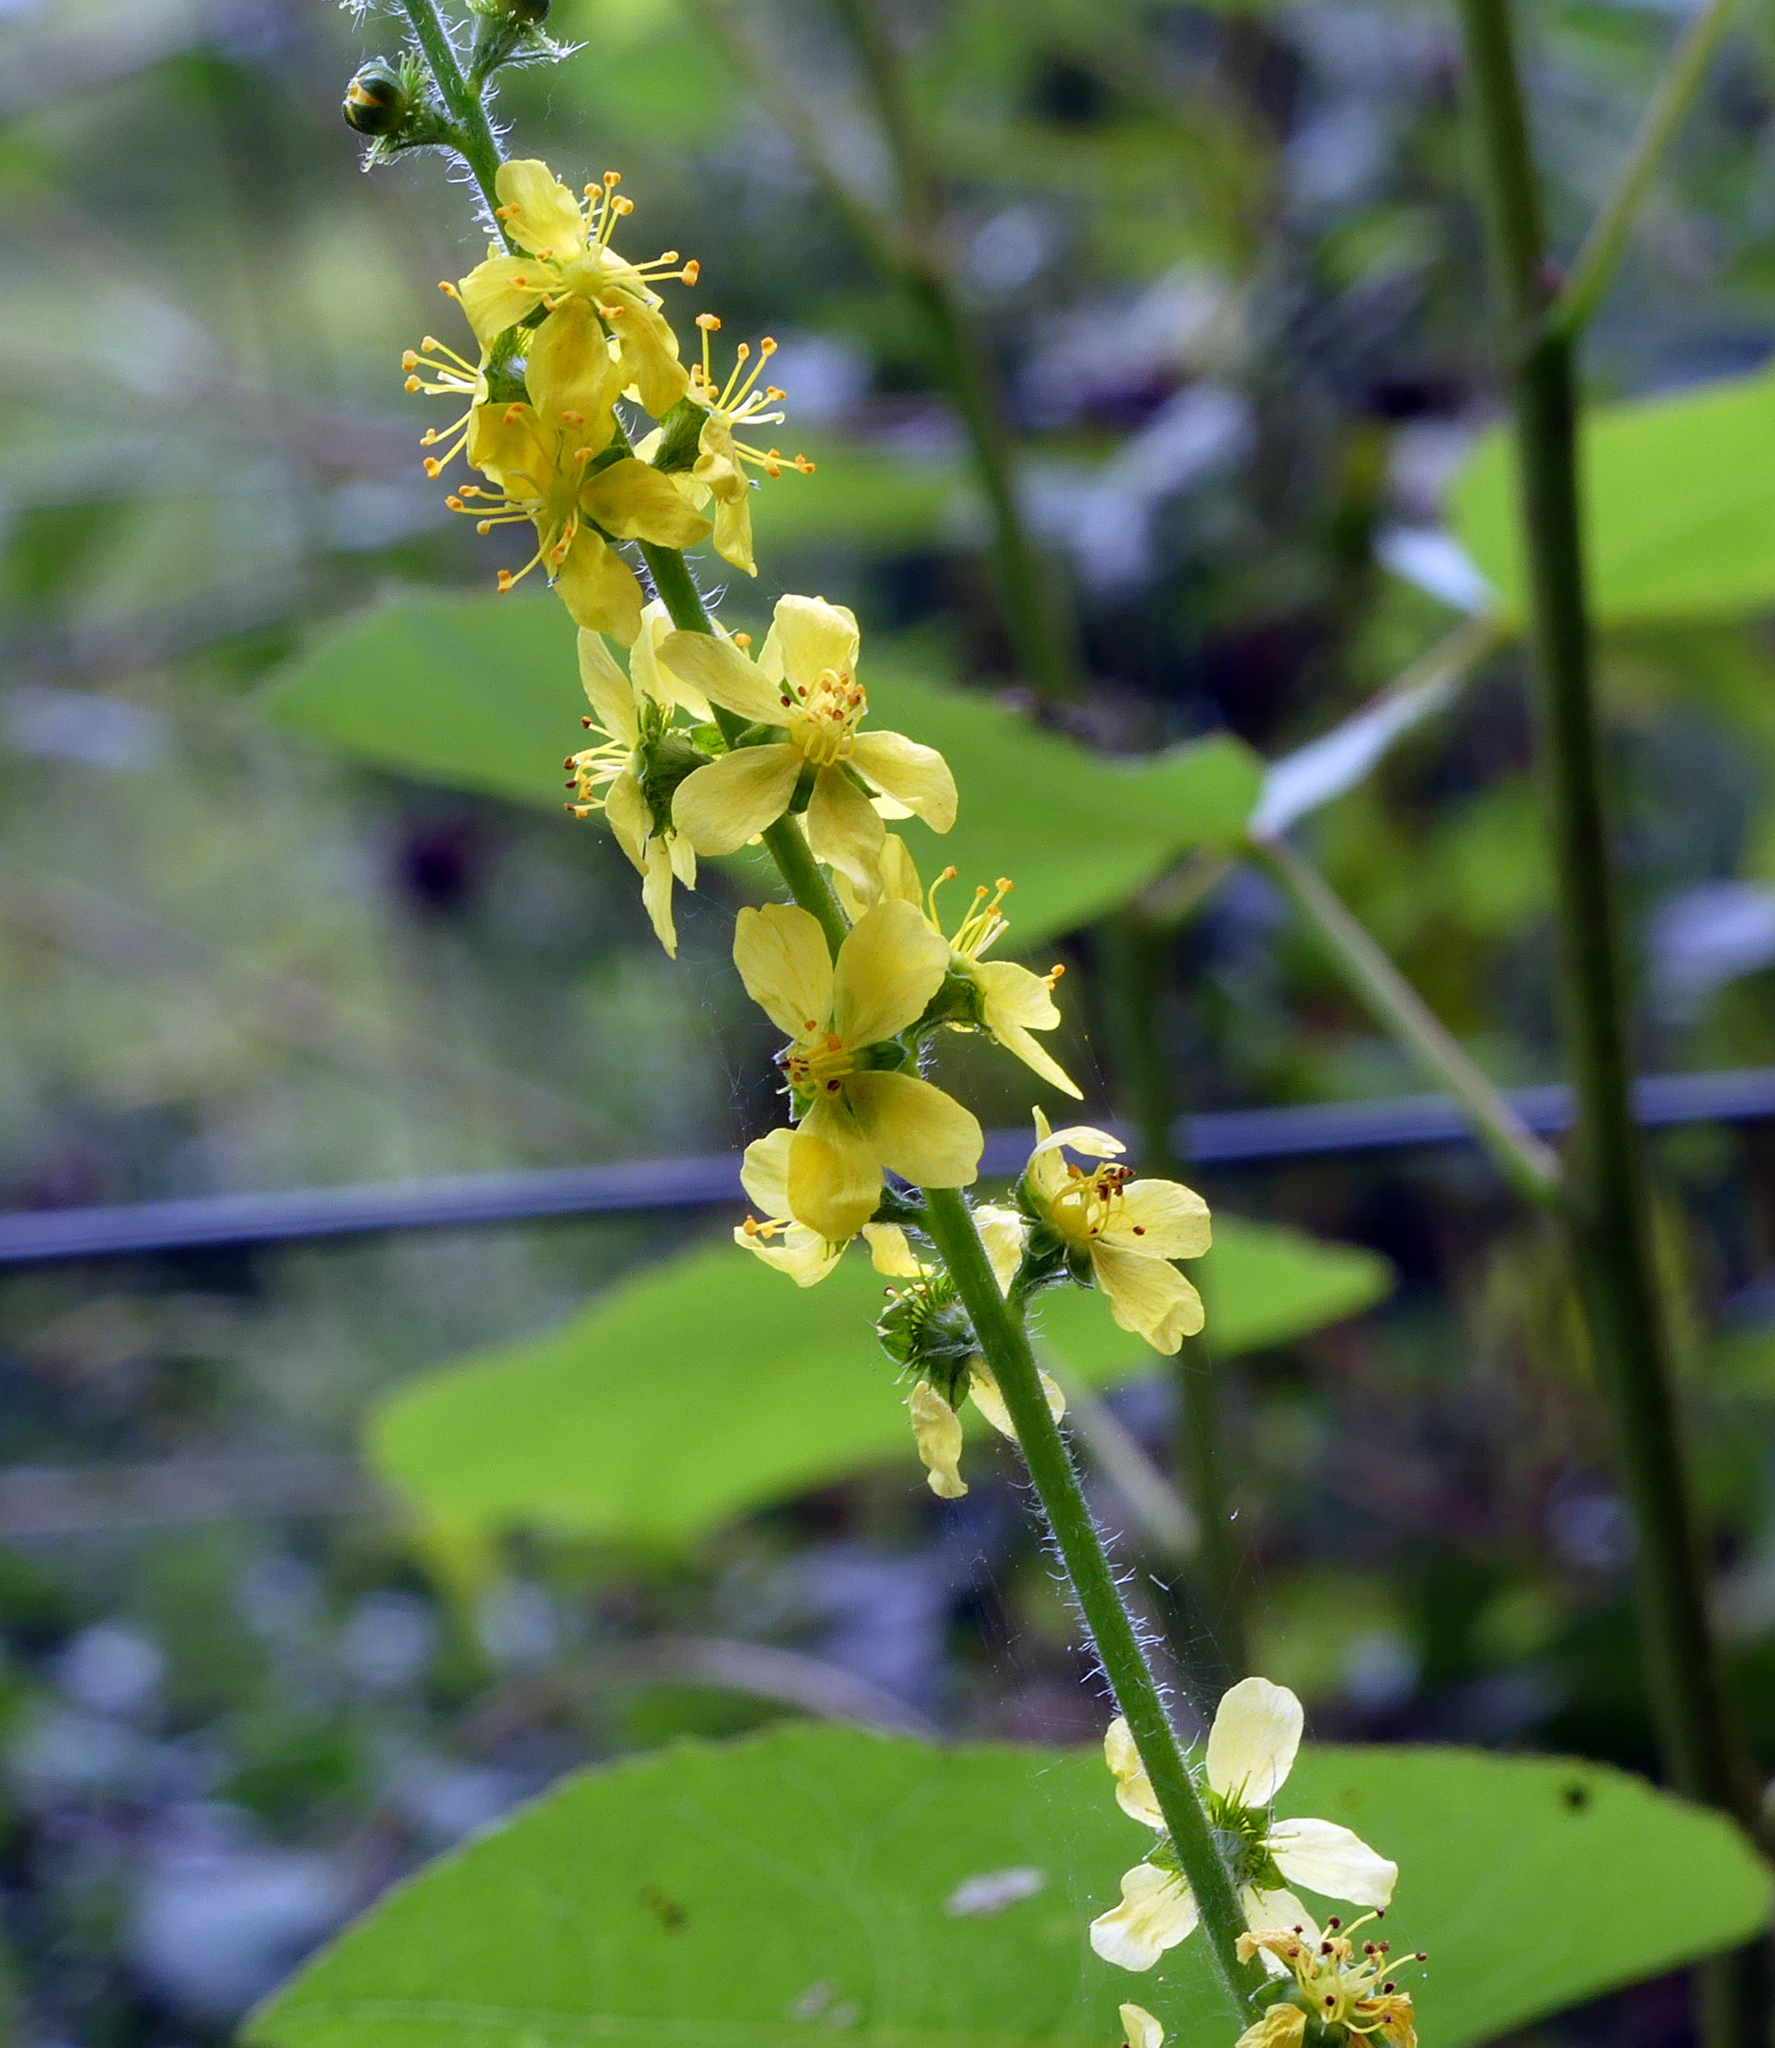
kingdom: Plantae
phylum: Tracheophyta
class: Magnoliopsida
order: Rosales
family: Rosaceae
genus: Agrimonia
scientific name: Agrimonia eupatoria
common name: Agrimony
